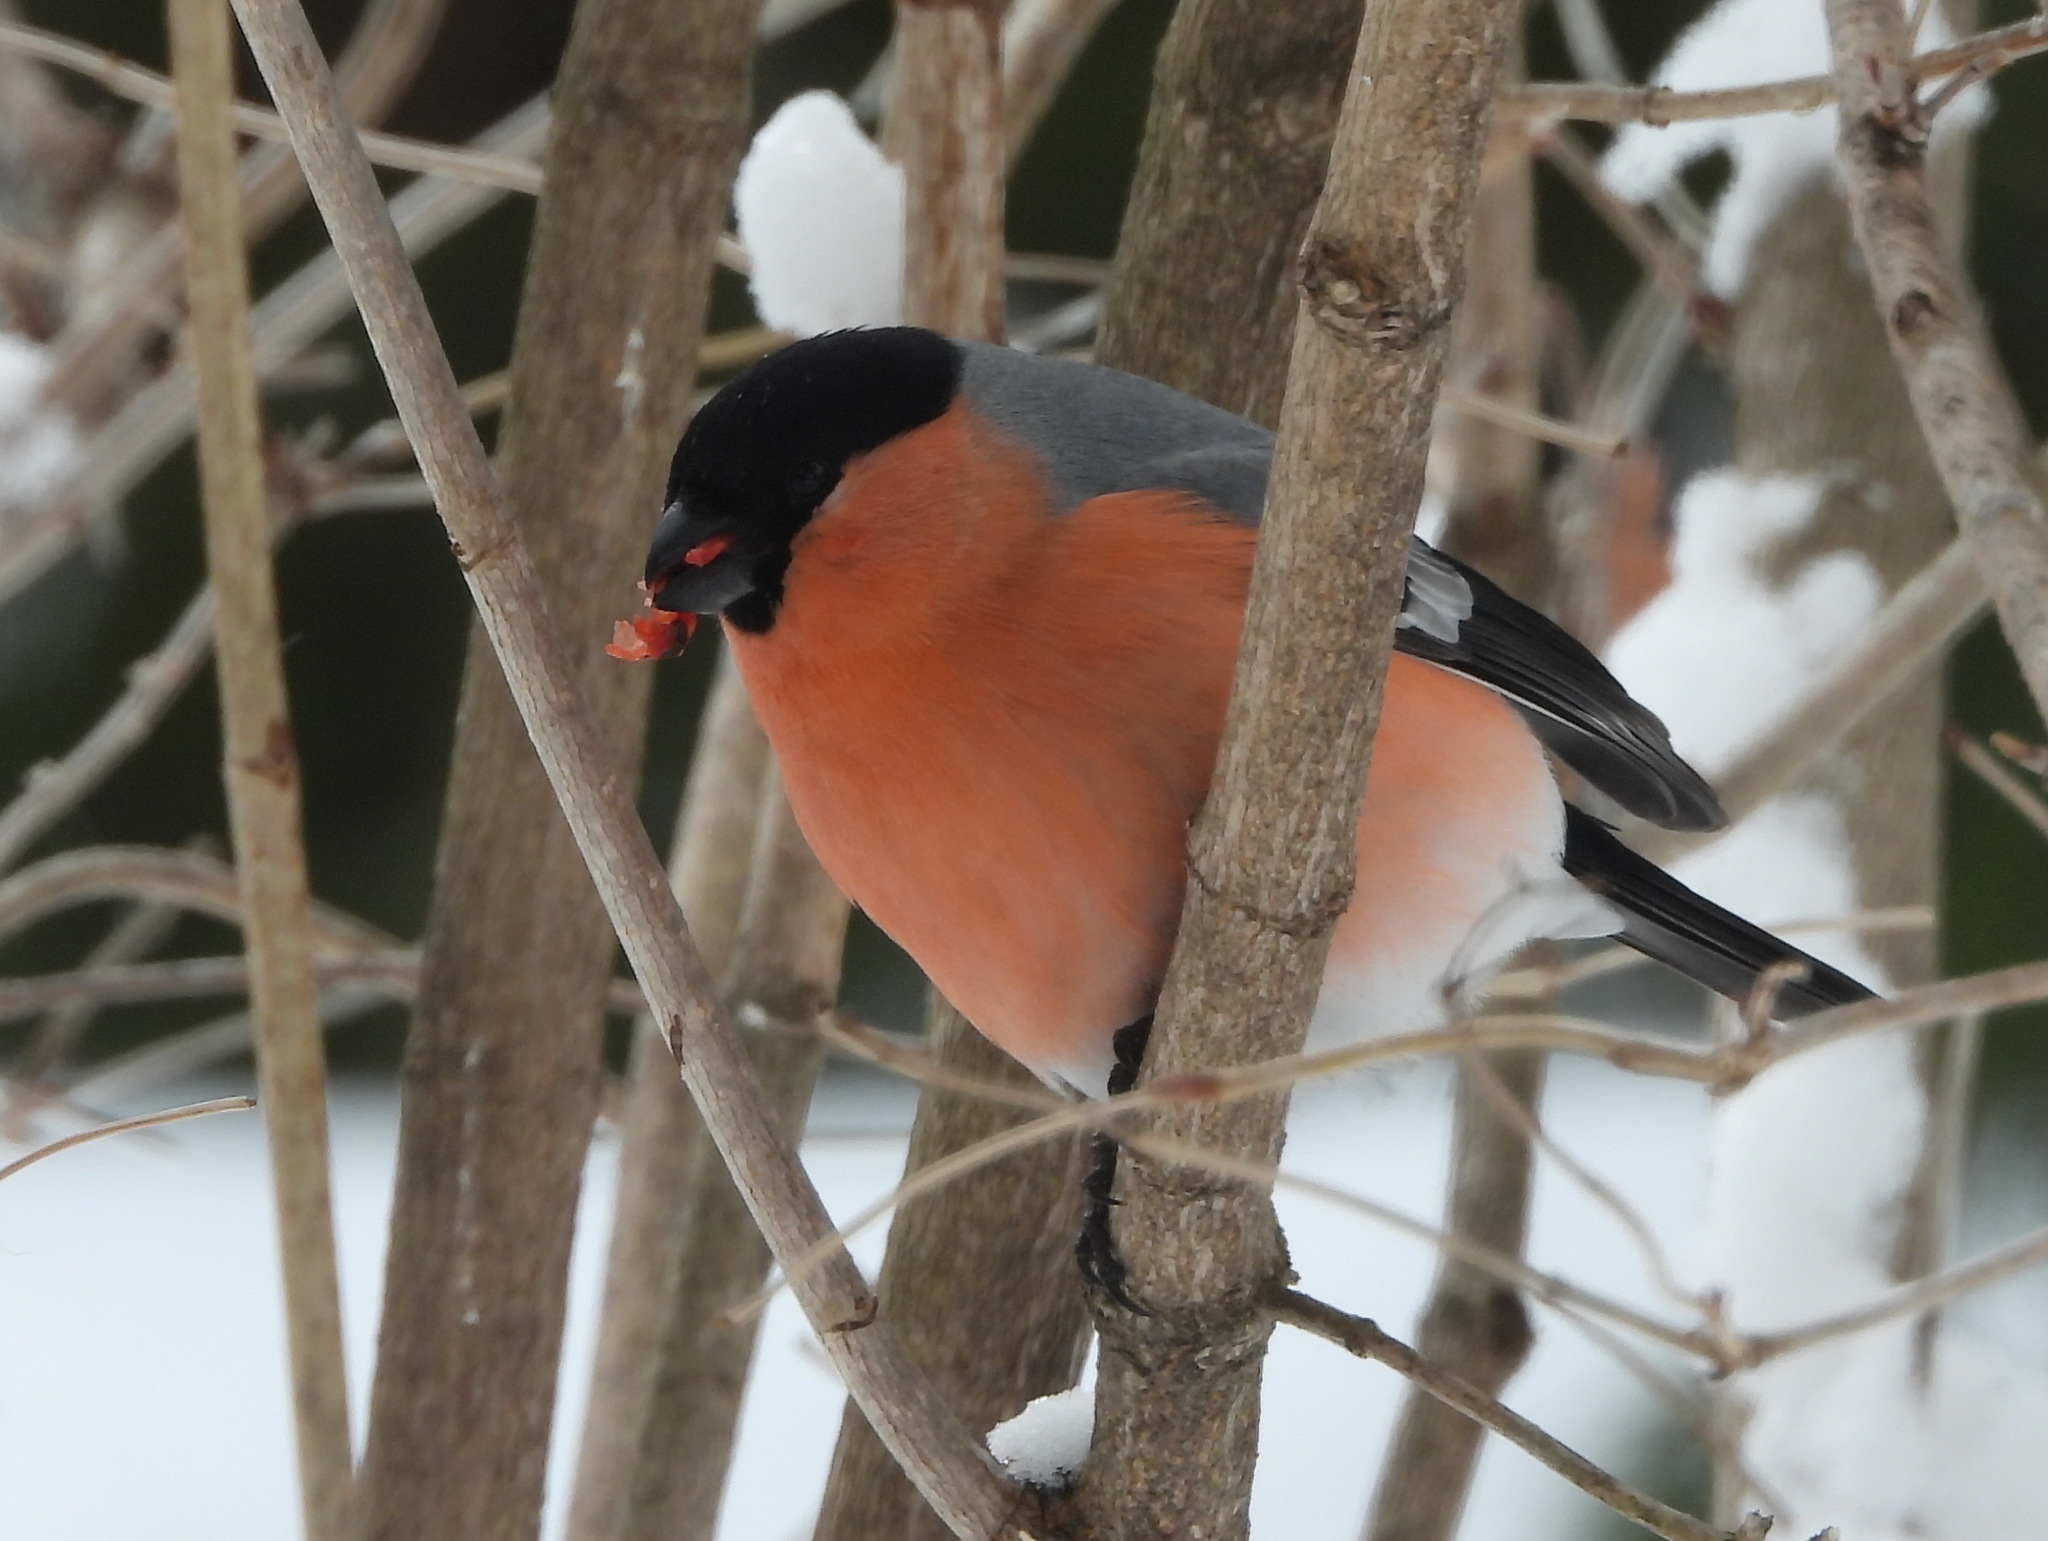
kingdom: Animalia
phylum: Chordata
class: Aves
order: Passeriformes
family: Fringillidae
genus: Pyrrhula
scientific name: Pyrrhula pyrrhula
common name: Eurasian bullfinch
